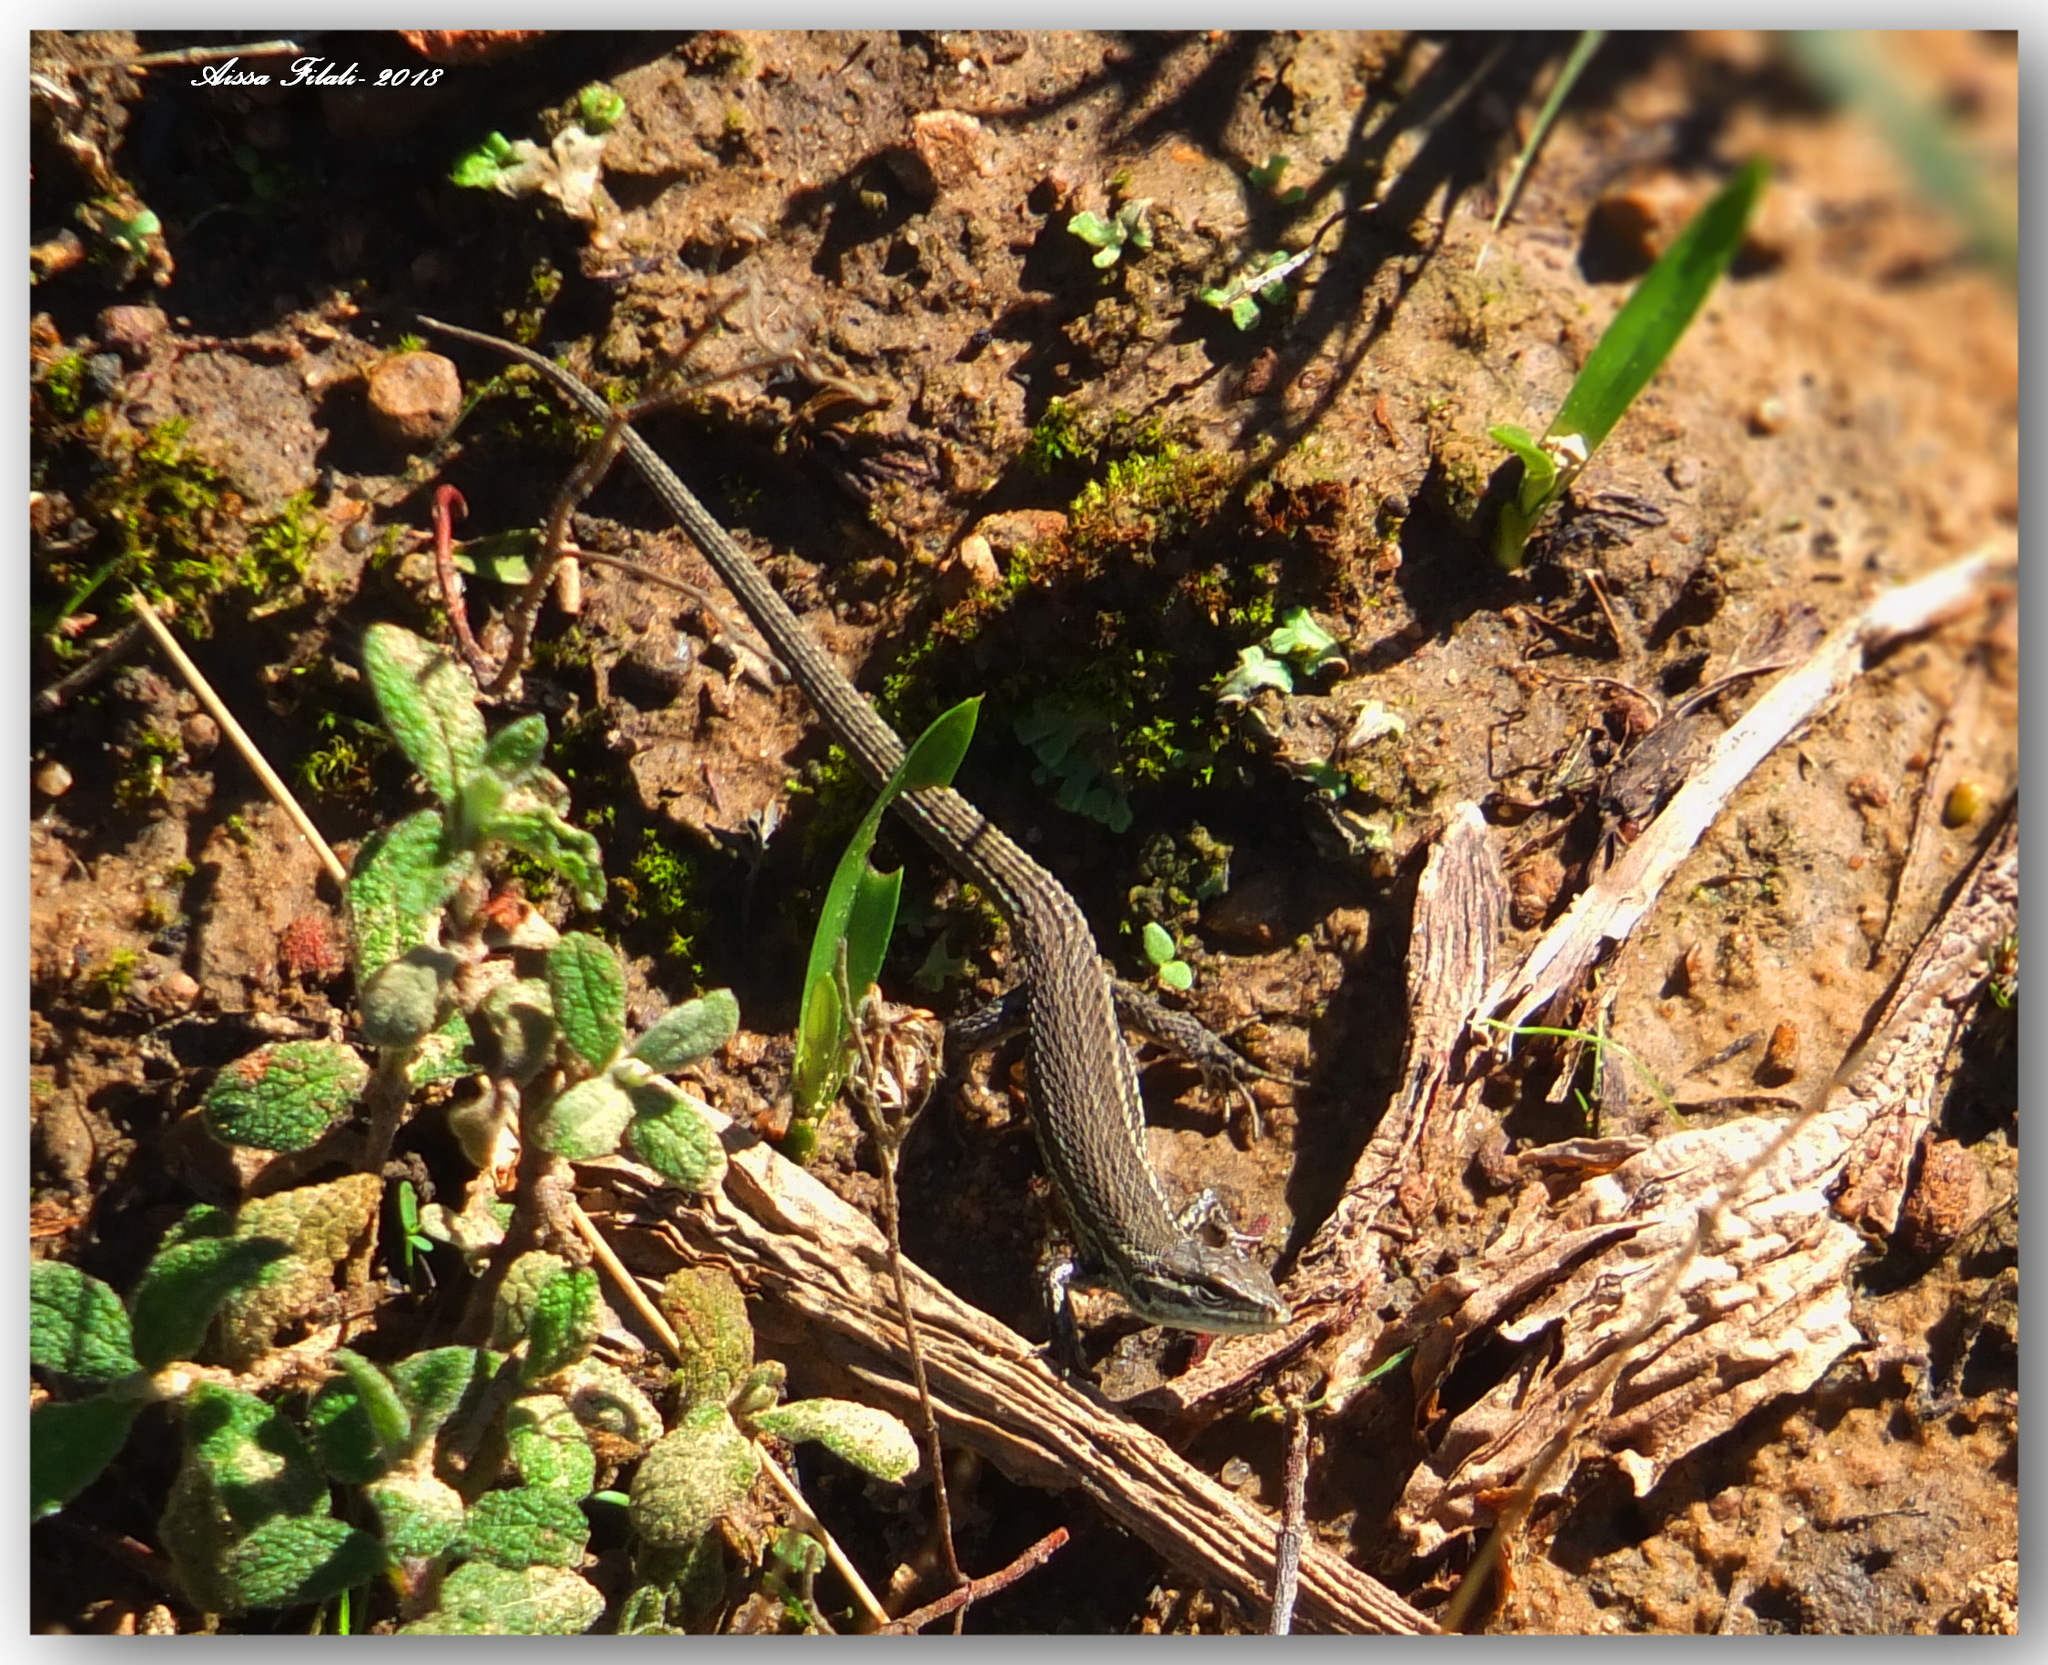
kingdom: Animalia
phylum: Chordata
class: Squamata
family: Lacertidae
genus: Psammodromus
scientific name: Psammodromus algirus
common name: Algerian psammodromus
